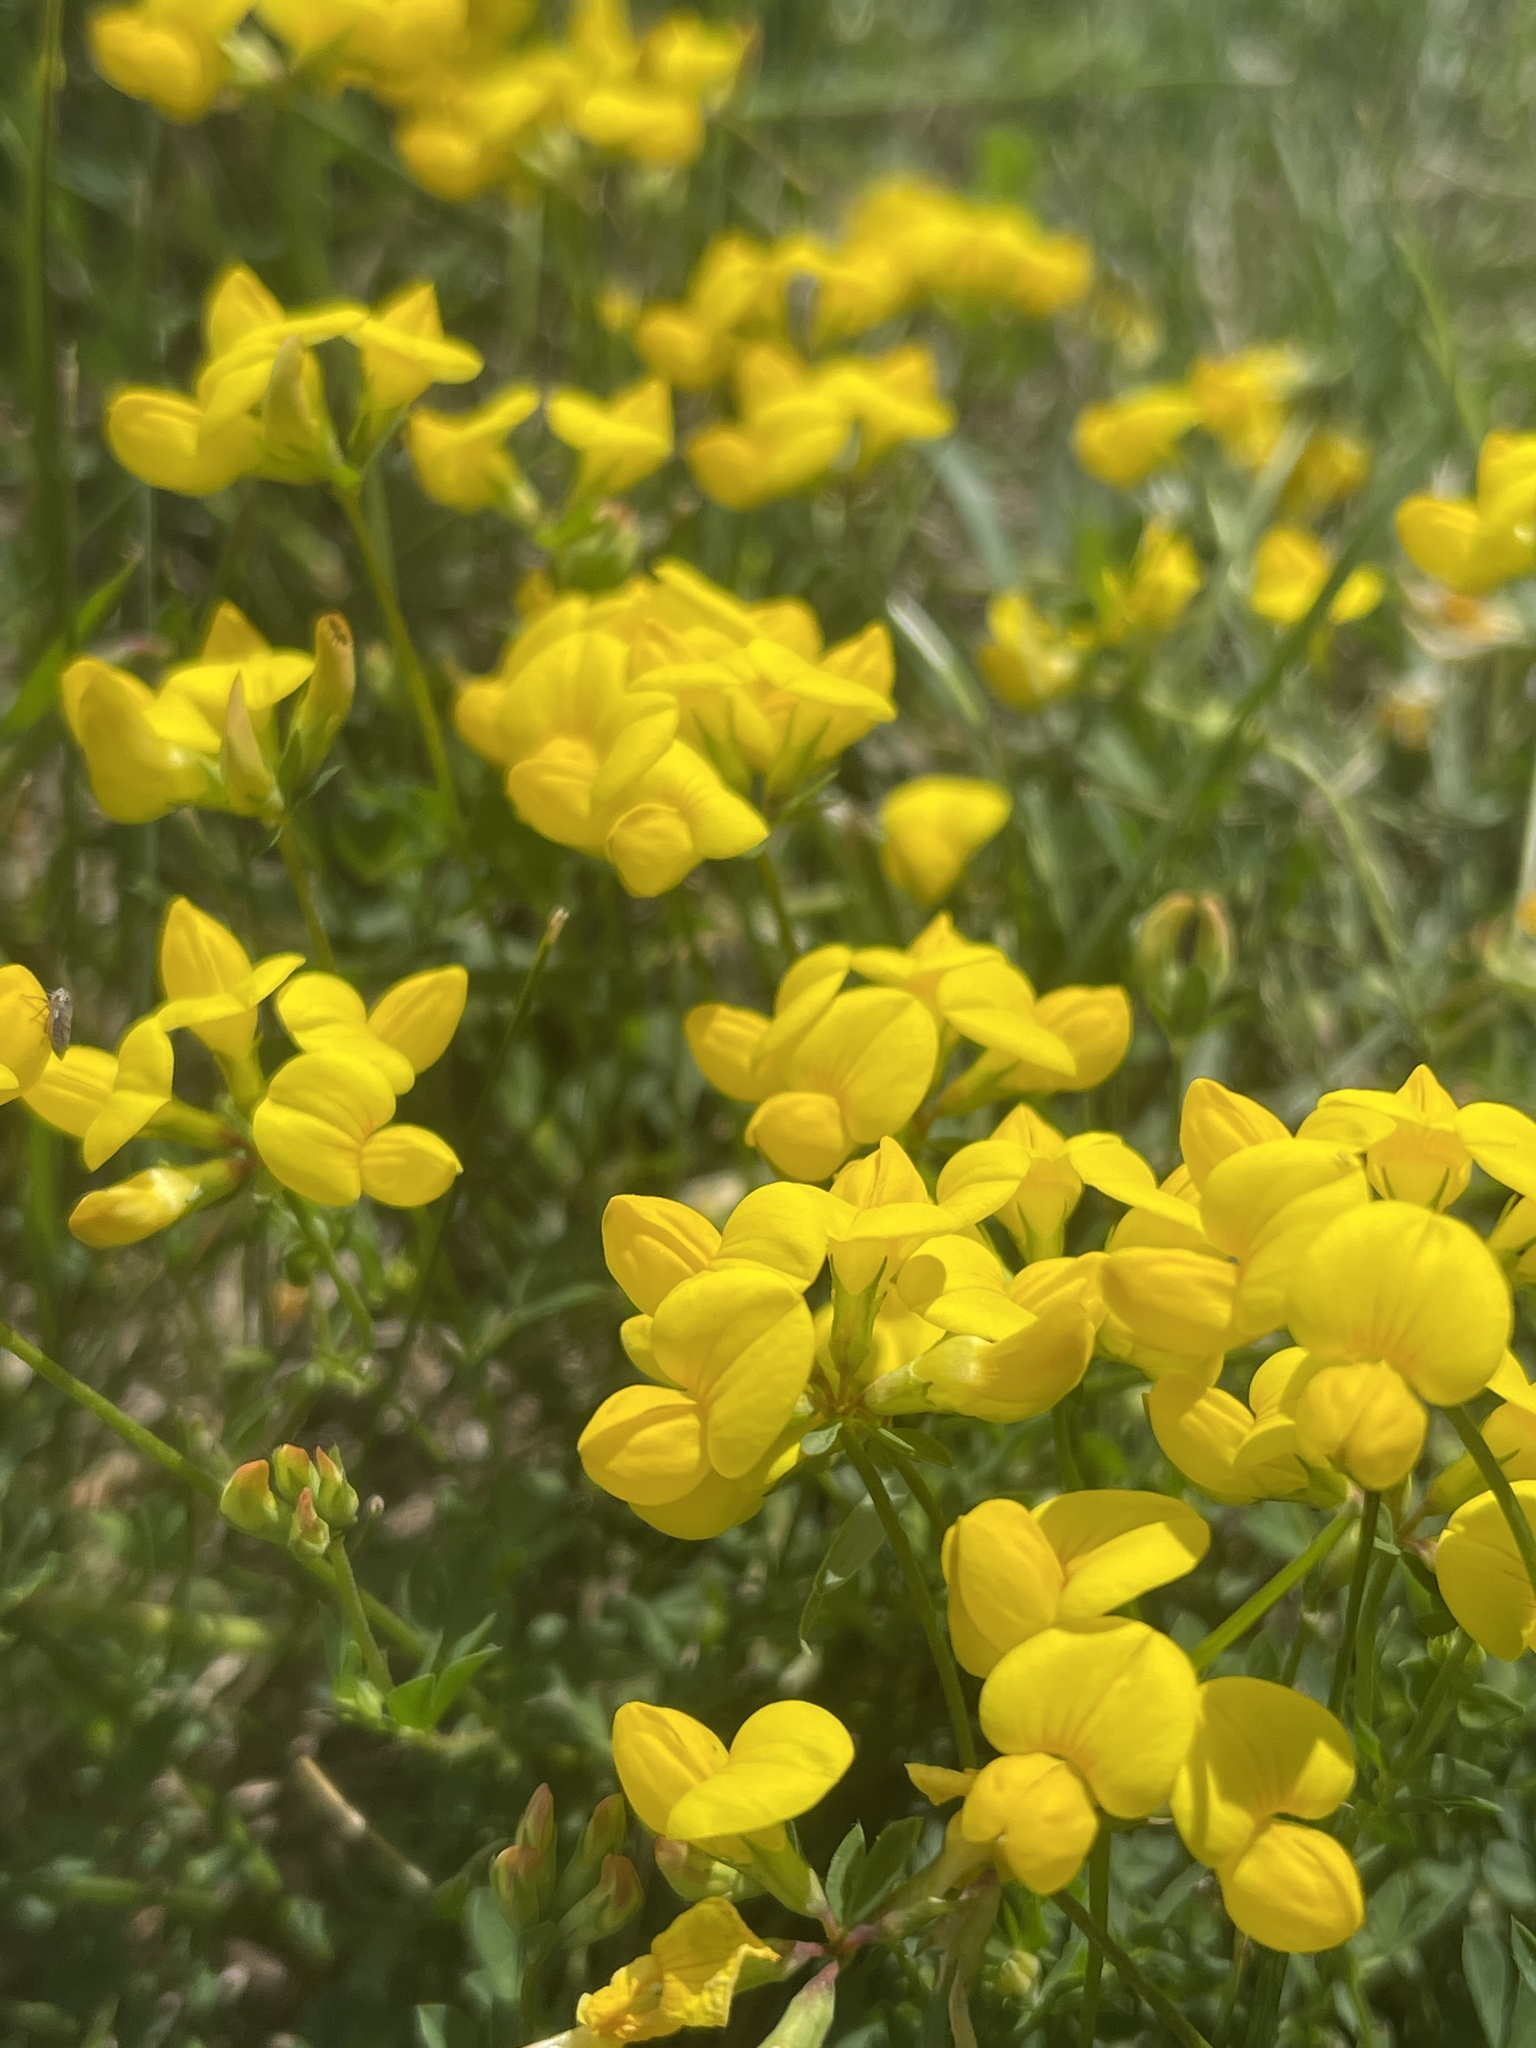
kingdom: Plantae
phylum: Tracheophyta
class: Magnoliopsida
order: Fabales
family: Fabaceae
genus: Lotus
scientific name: Lotus corniculatus
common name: Common bird's-foot-trefoil
